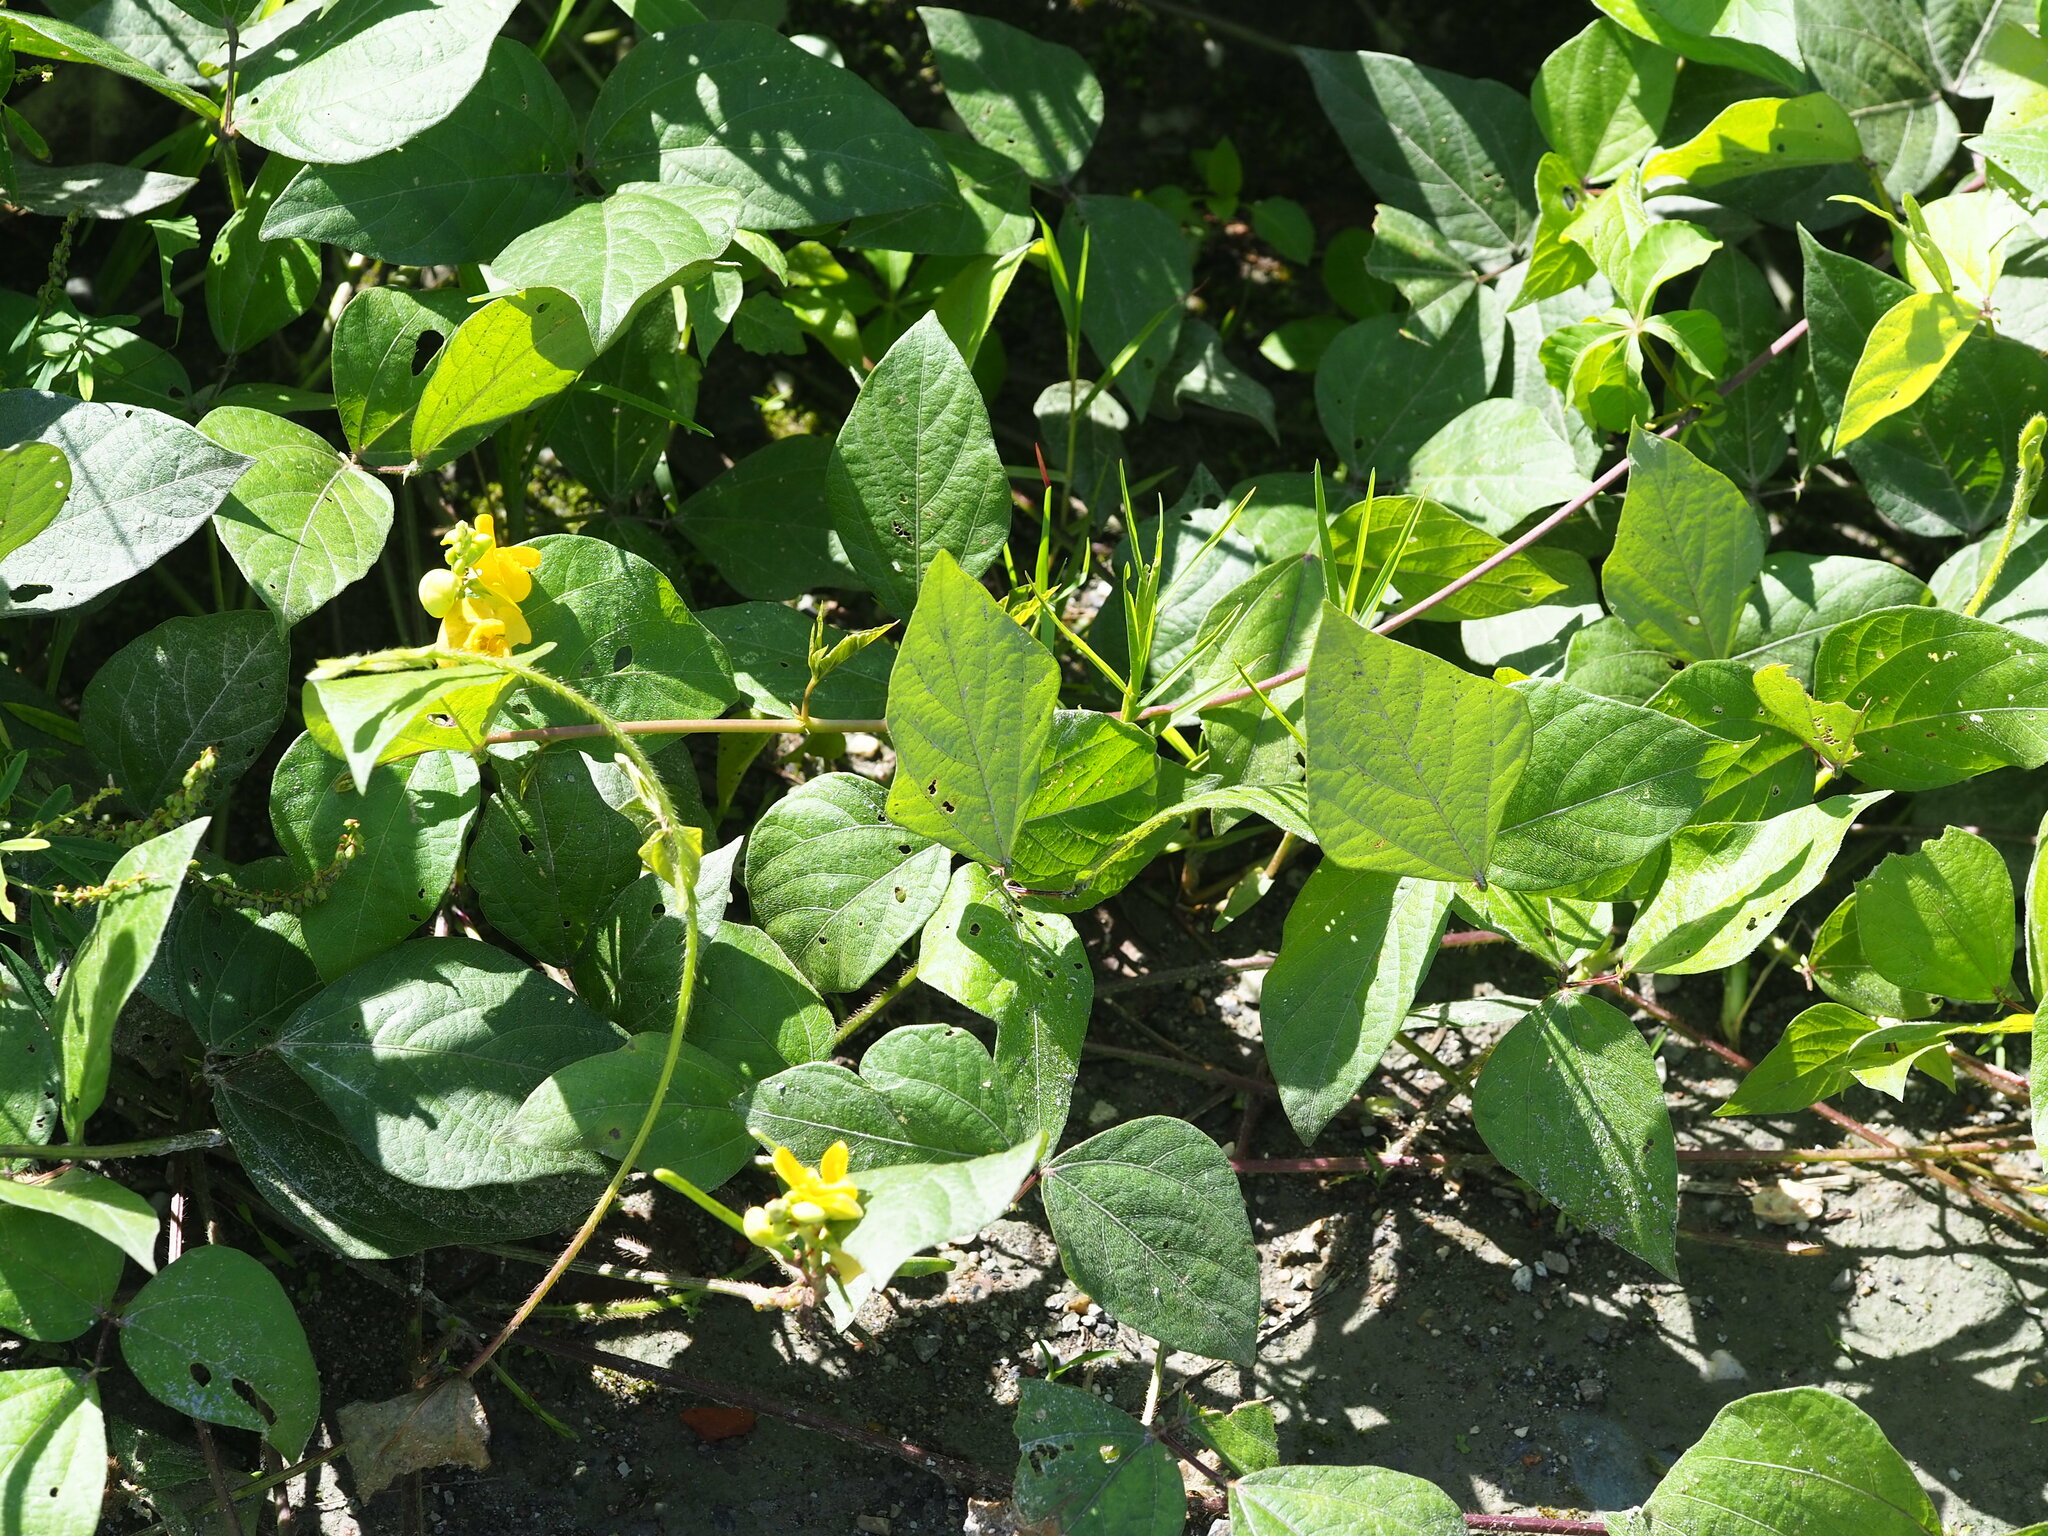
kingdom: Plantae
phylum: Tracheophyta
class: Magnoliopsida
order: Fabales
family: Fabaceae
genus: Vigna
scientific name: Vigna reflexopilosa
